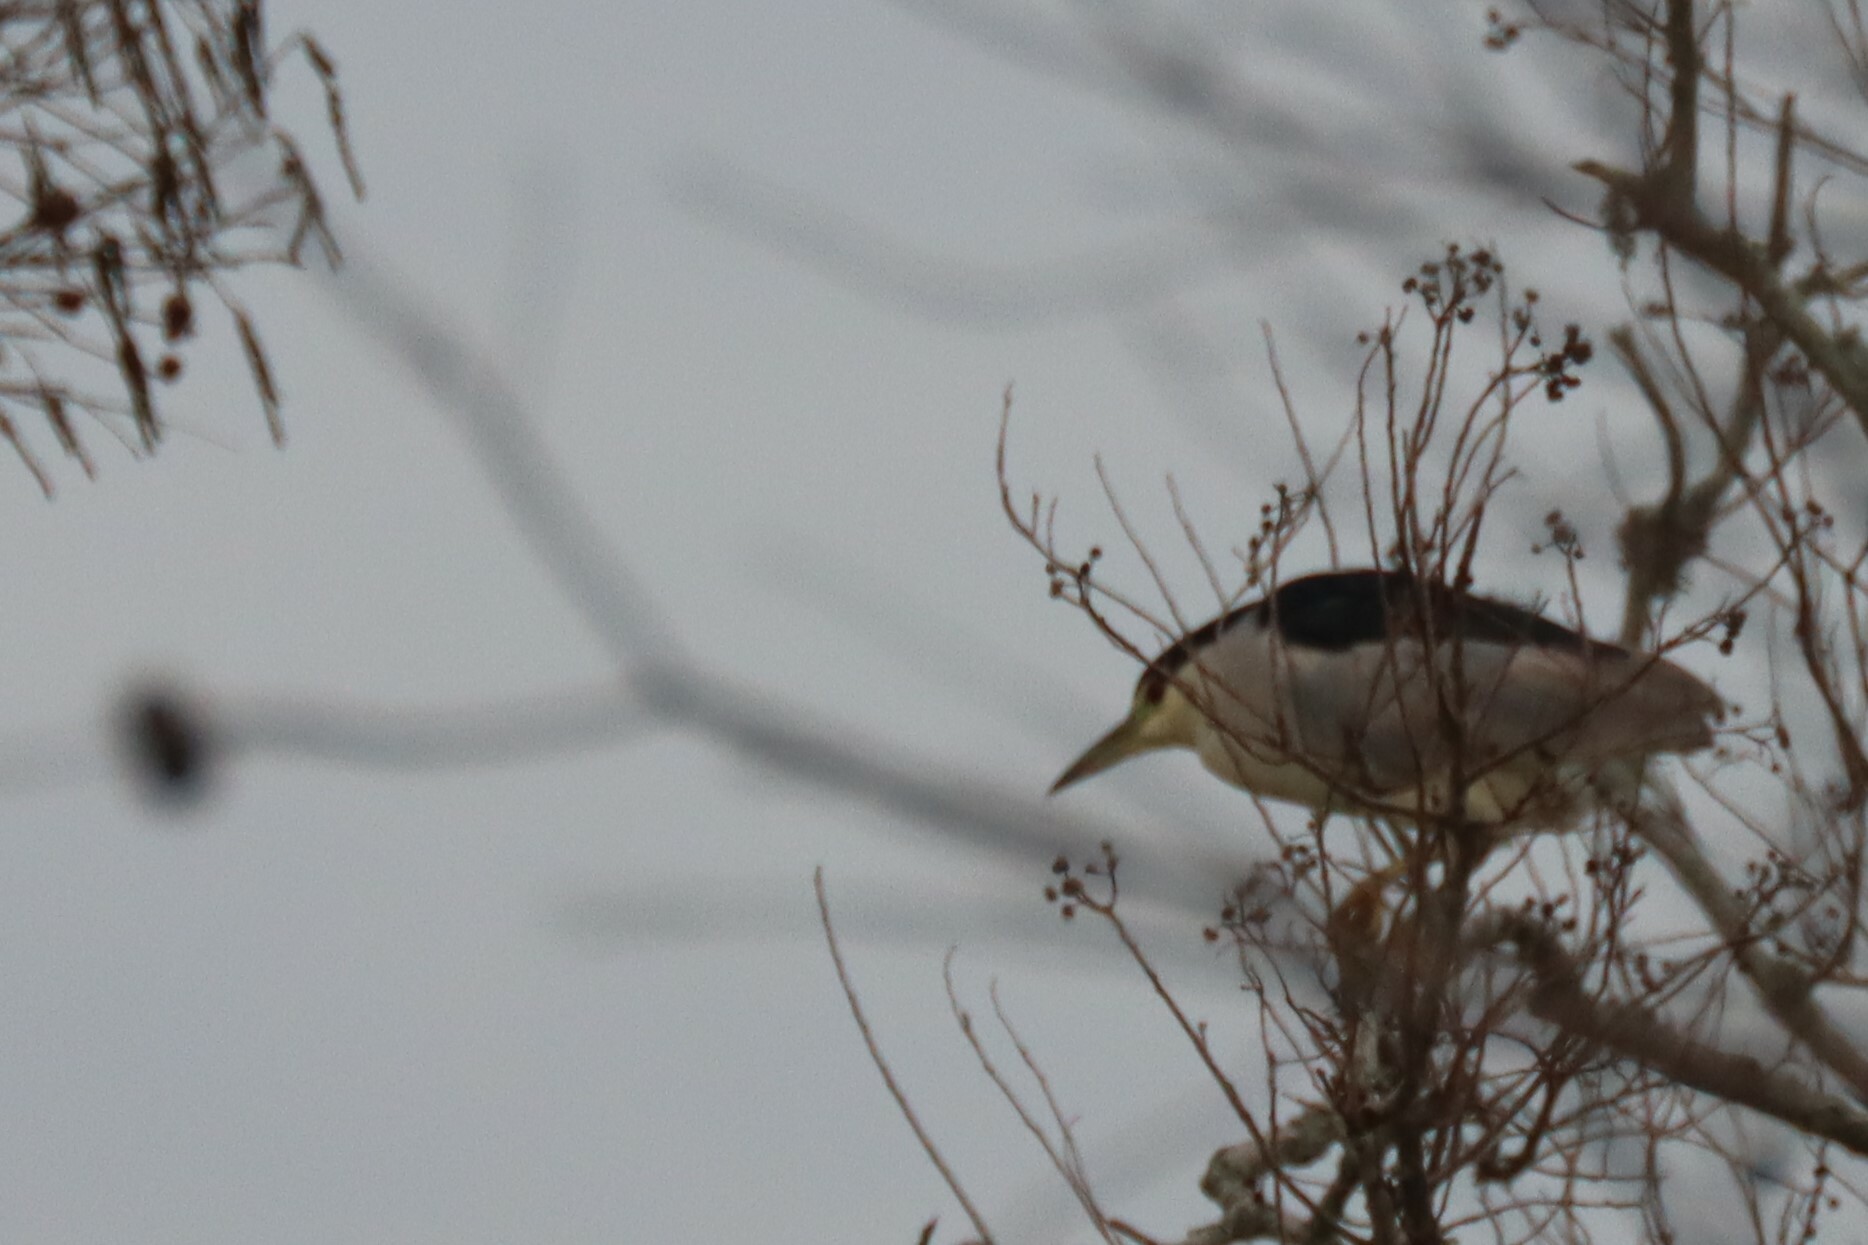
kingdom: Animalia
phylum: Chordata
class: Aves
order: Pelecaniformes
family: Ardeidae
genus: Nycticorax
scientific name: Nycticorax nycticorax
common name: Black-crowned night heron
